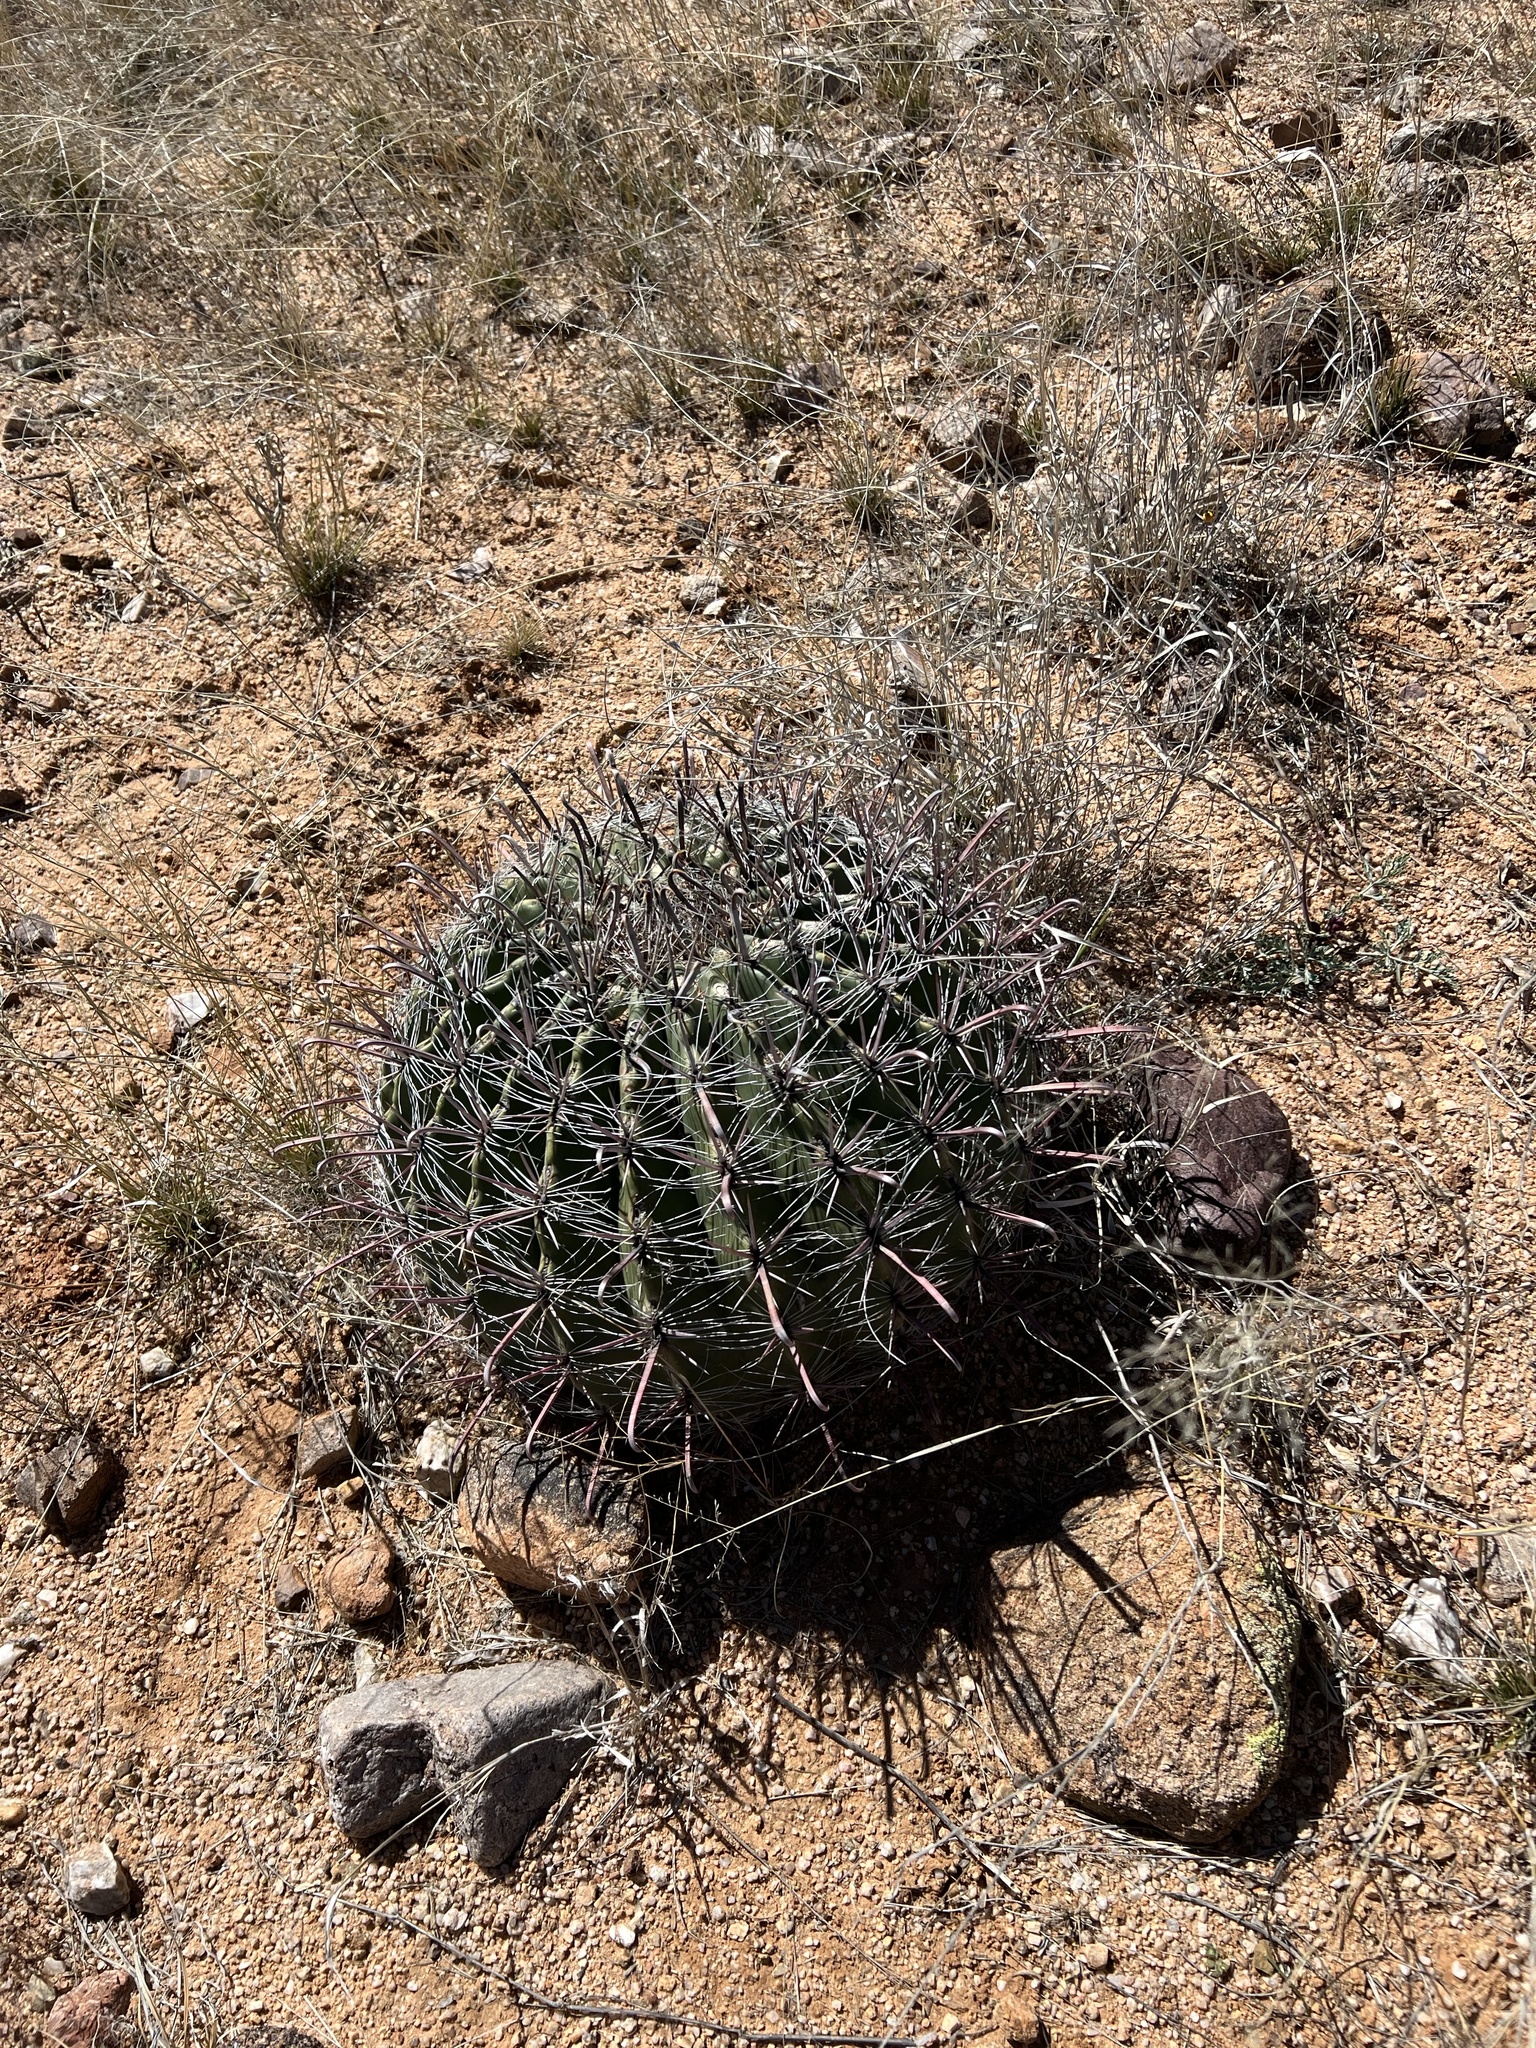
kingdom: Plantae
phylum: Tracheophyta
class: Magnoliopsida
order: Caryophyllales
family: Cactaceae
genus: Ferocactus
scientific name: Ferocactus wislizeni
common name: Candy barrel cactus
